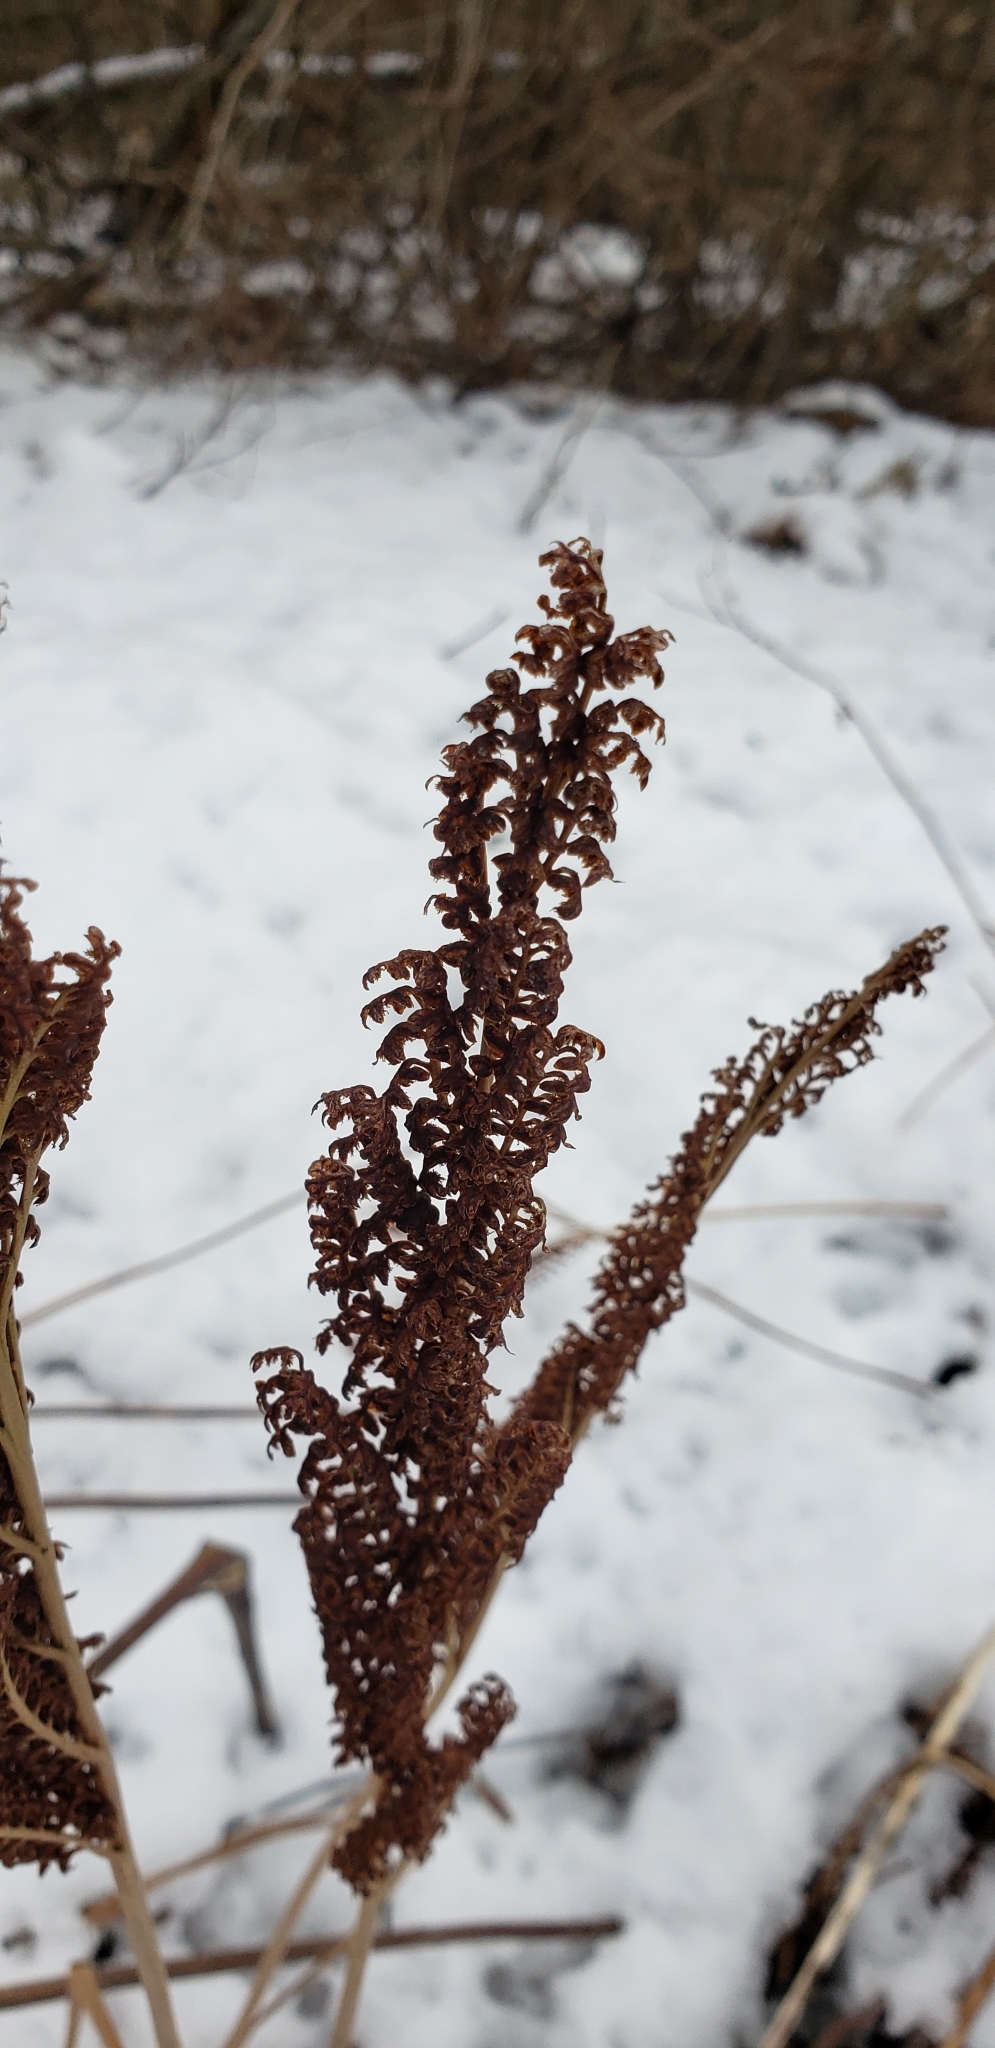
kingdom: Plantae
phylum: Tracheophyta
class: Polypodiopsida
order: Polypodiales
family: Onocleaceae
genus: Onoclea
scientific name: Onoclea sensibilis
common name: Sensitive fern
